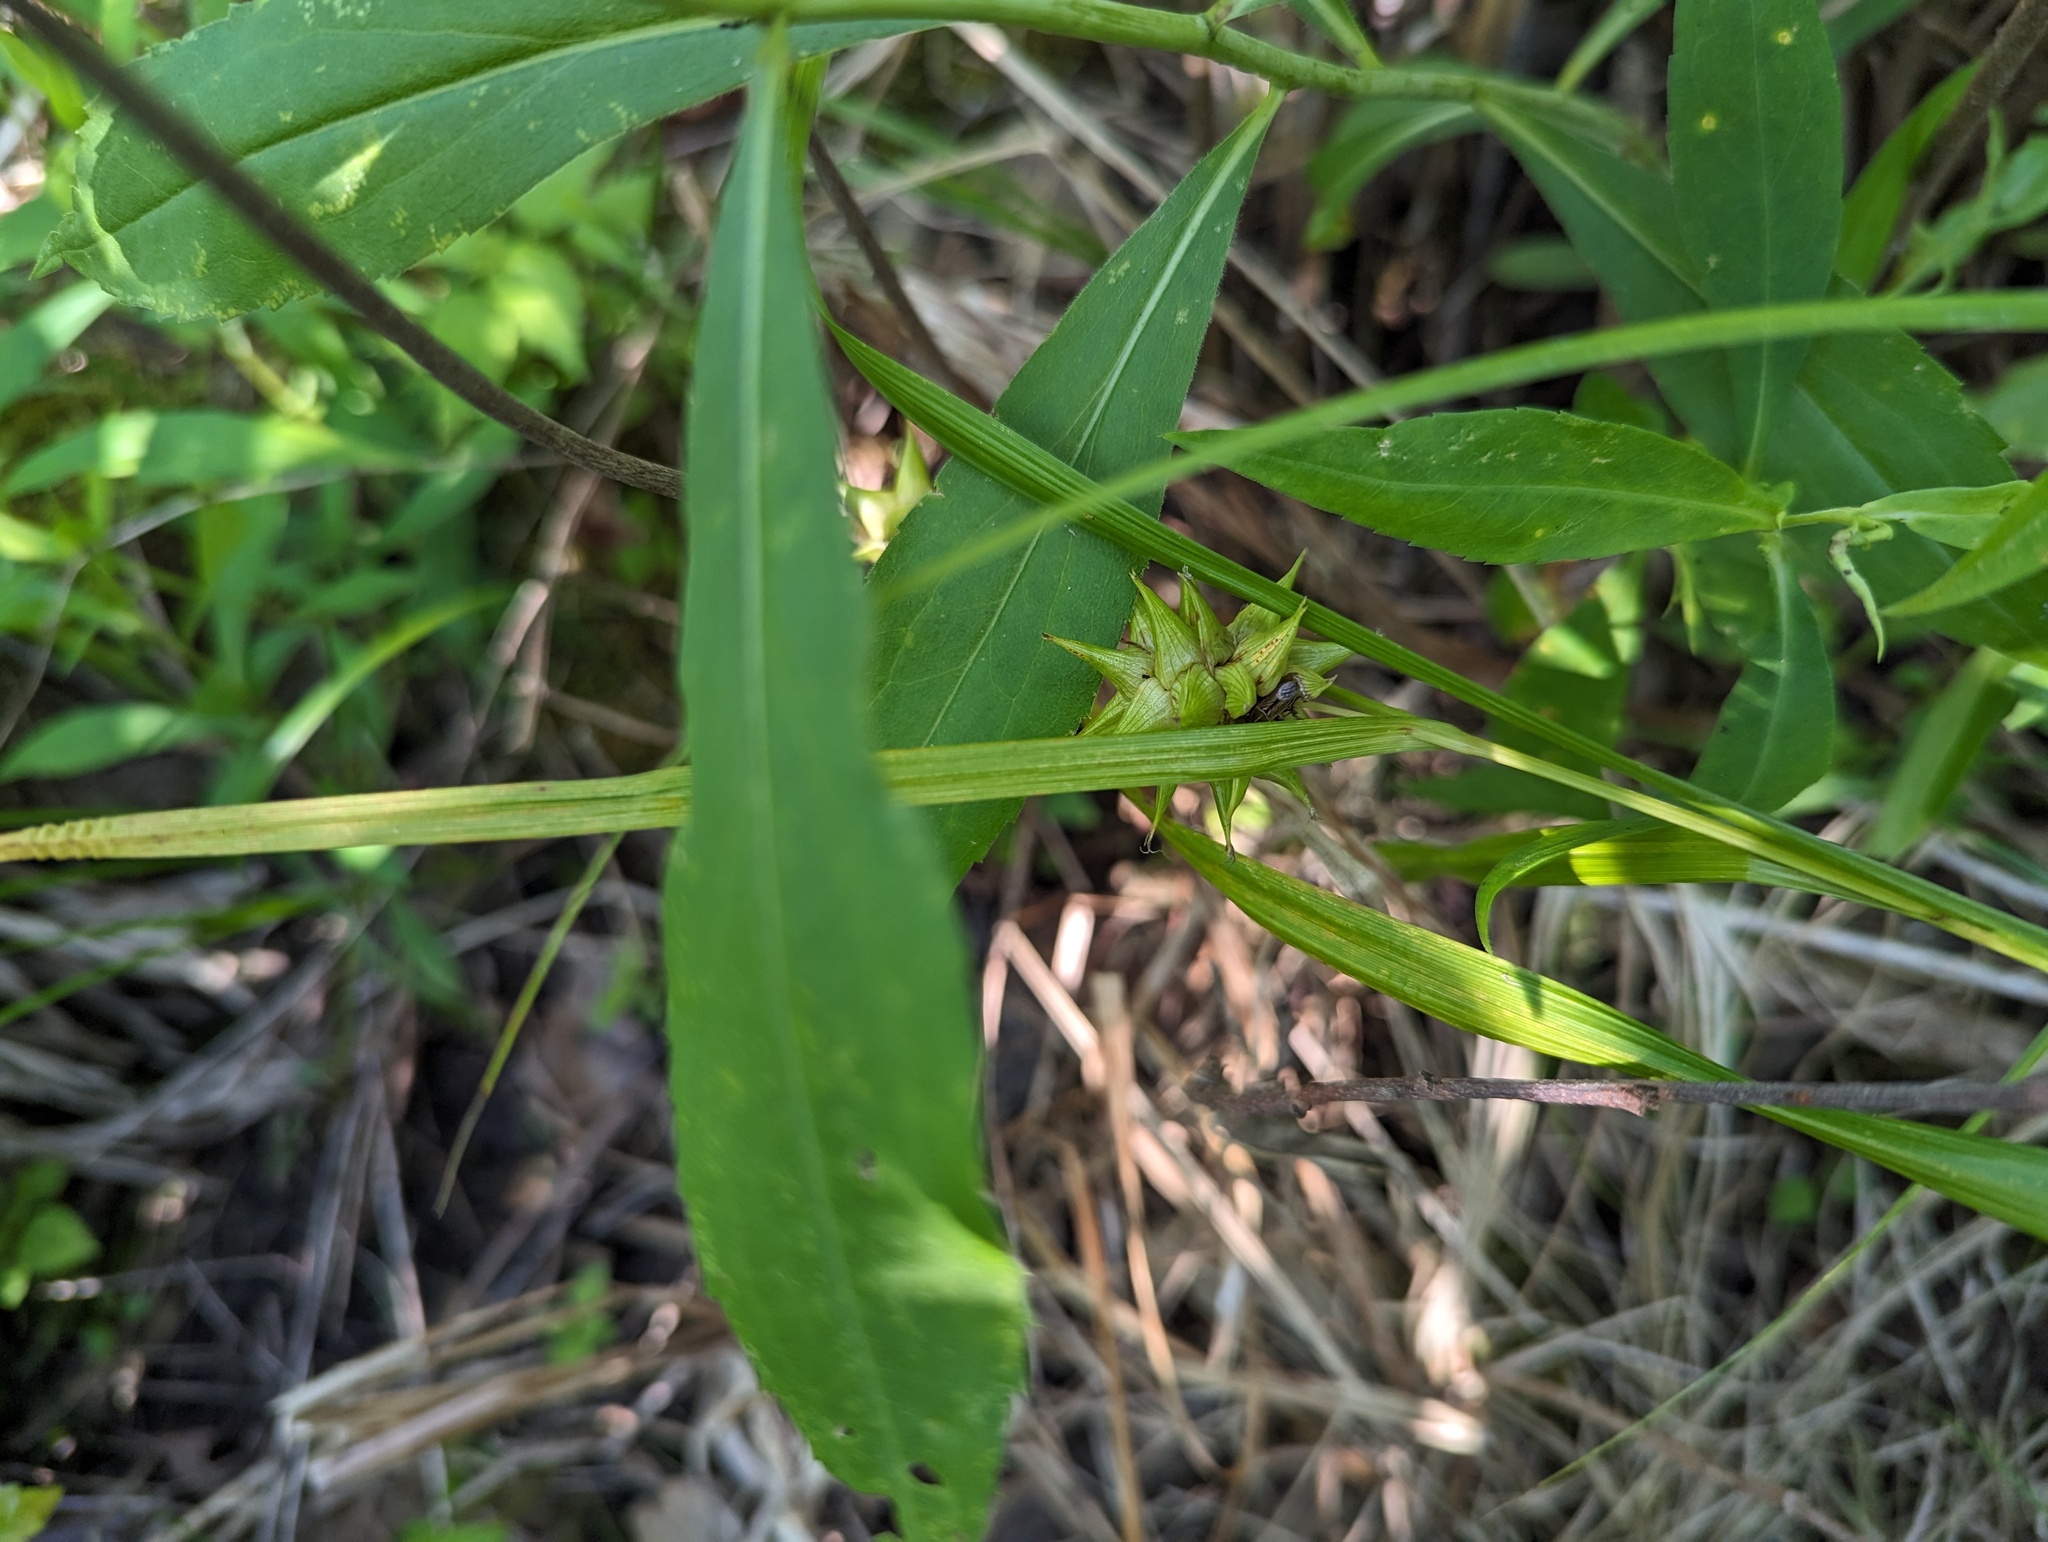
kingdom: Plantae
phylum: Tracheophyta
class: Liliopsida
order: Poales
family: Cyperaceae
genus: Carex
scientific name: Carex grayi
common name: Asa gray's sedge
